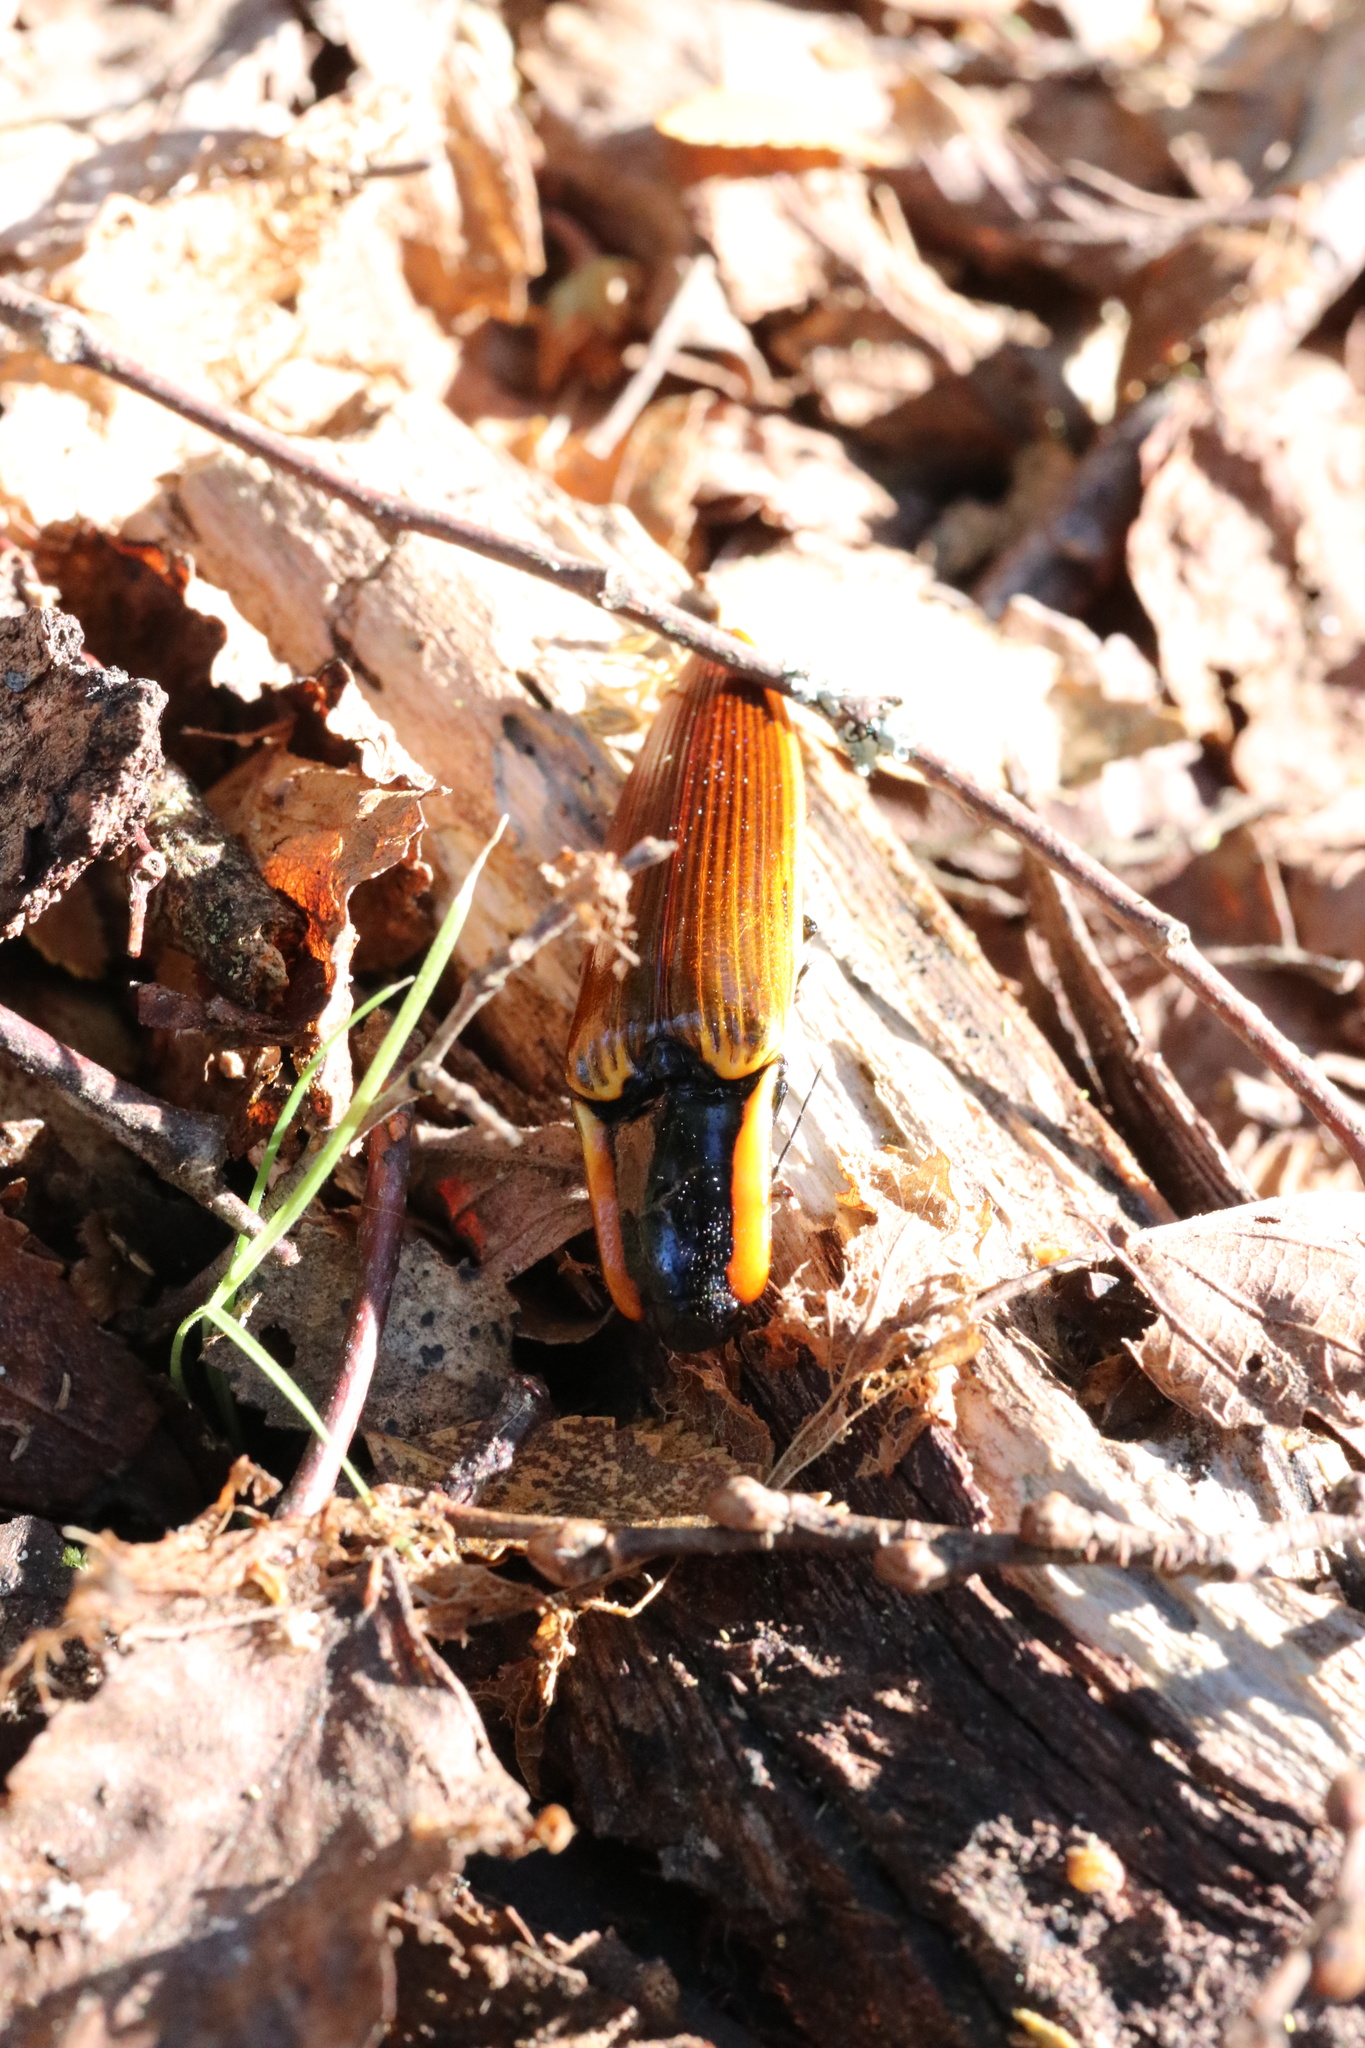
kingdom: Animalia
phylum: Arthropoda
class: Insecta
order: Coleoptera
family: Elateridae
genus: Semiotus
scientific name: Semiotus
